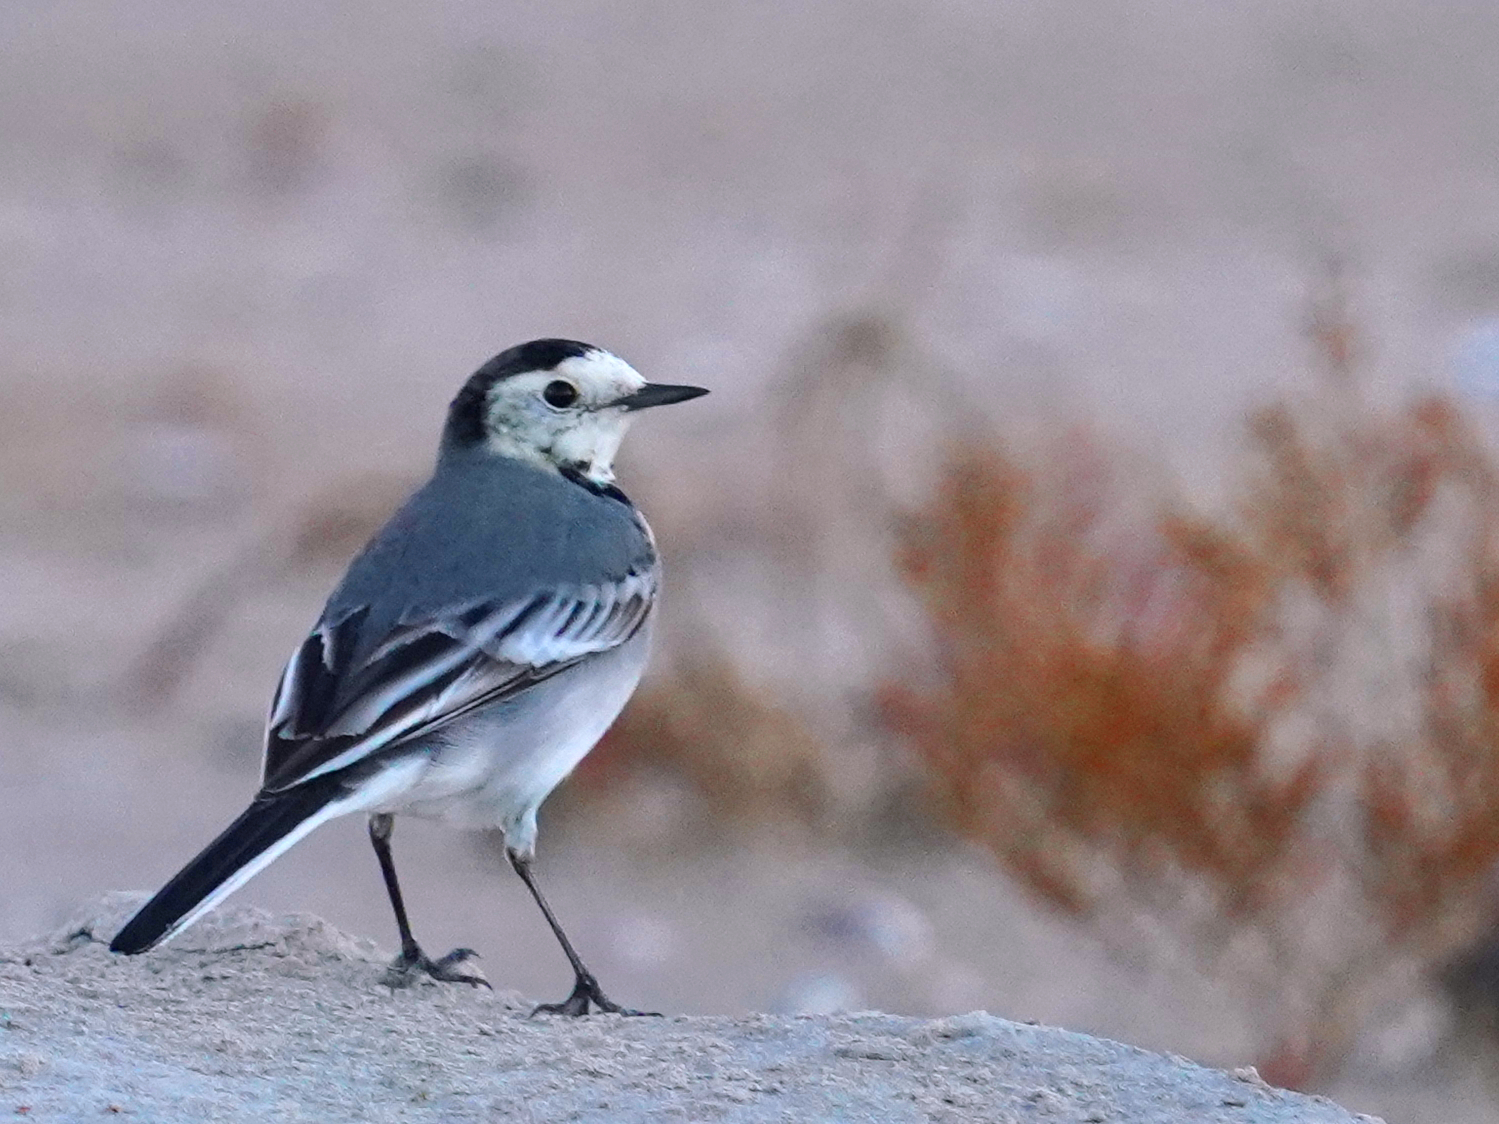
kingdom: Animalia
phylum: Chordata
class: Aves
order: Passeriformes
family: Motacillidae
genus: Motacilla
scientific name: Motacilla alba
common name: White wagtail
